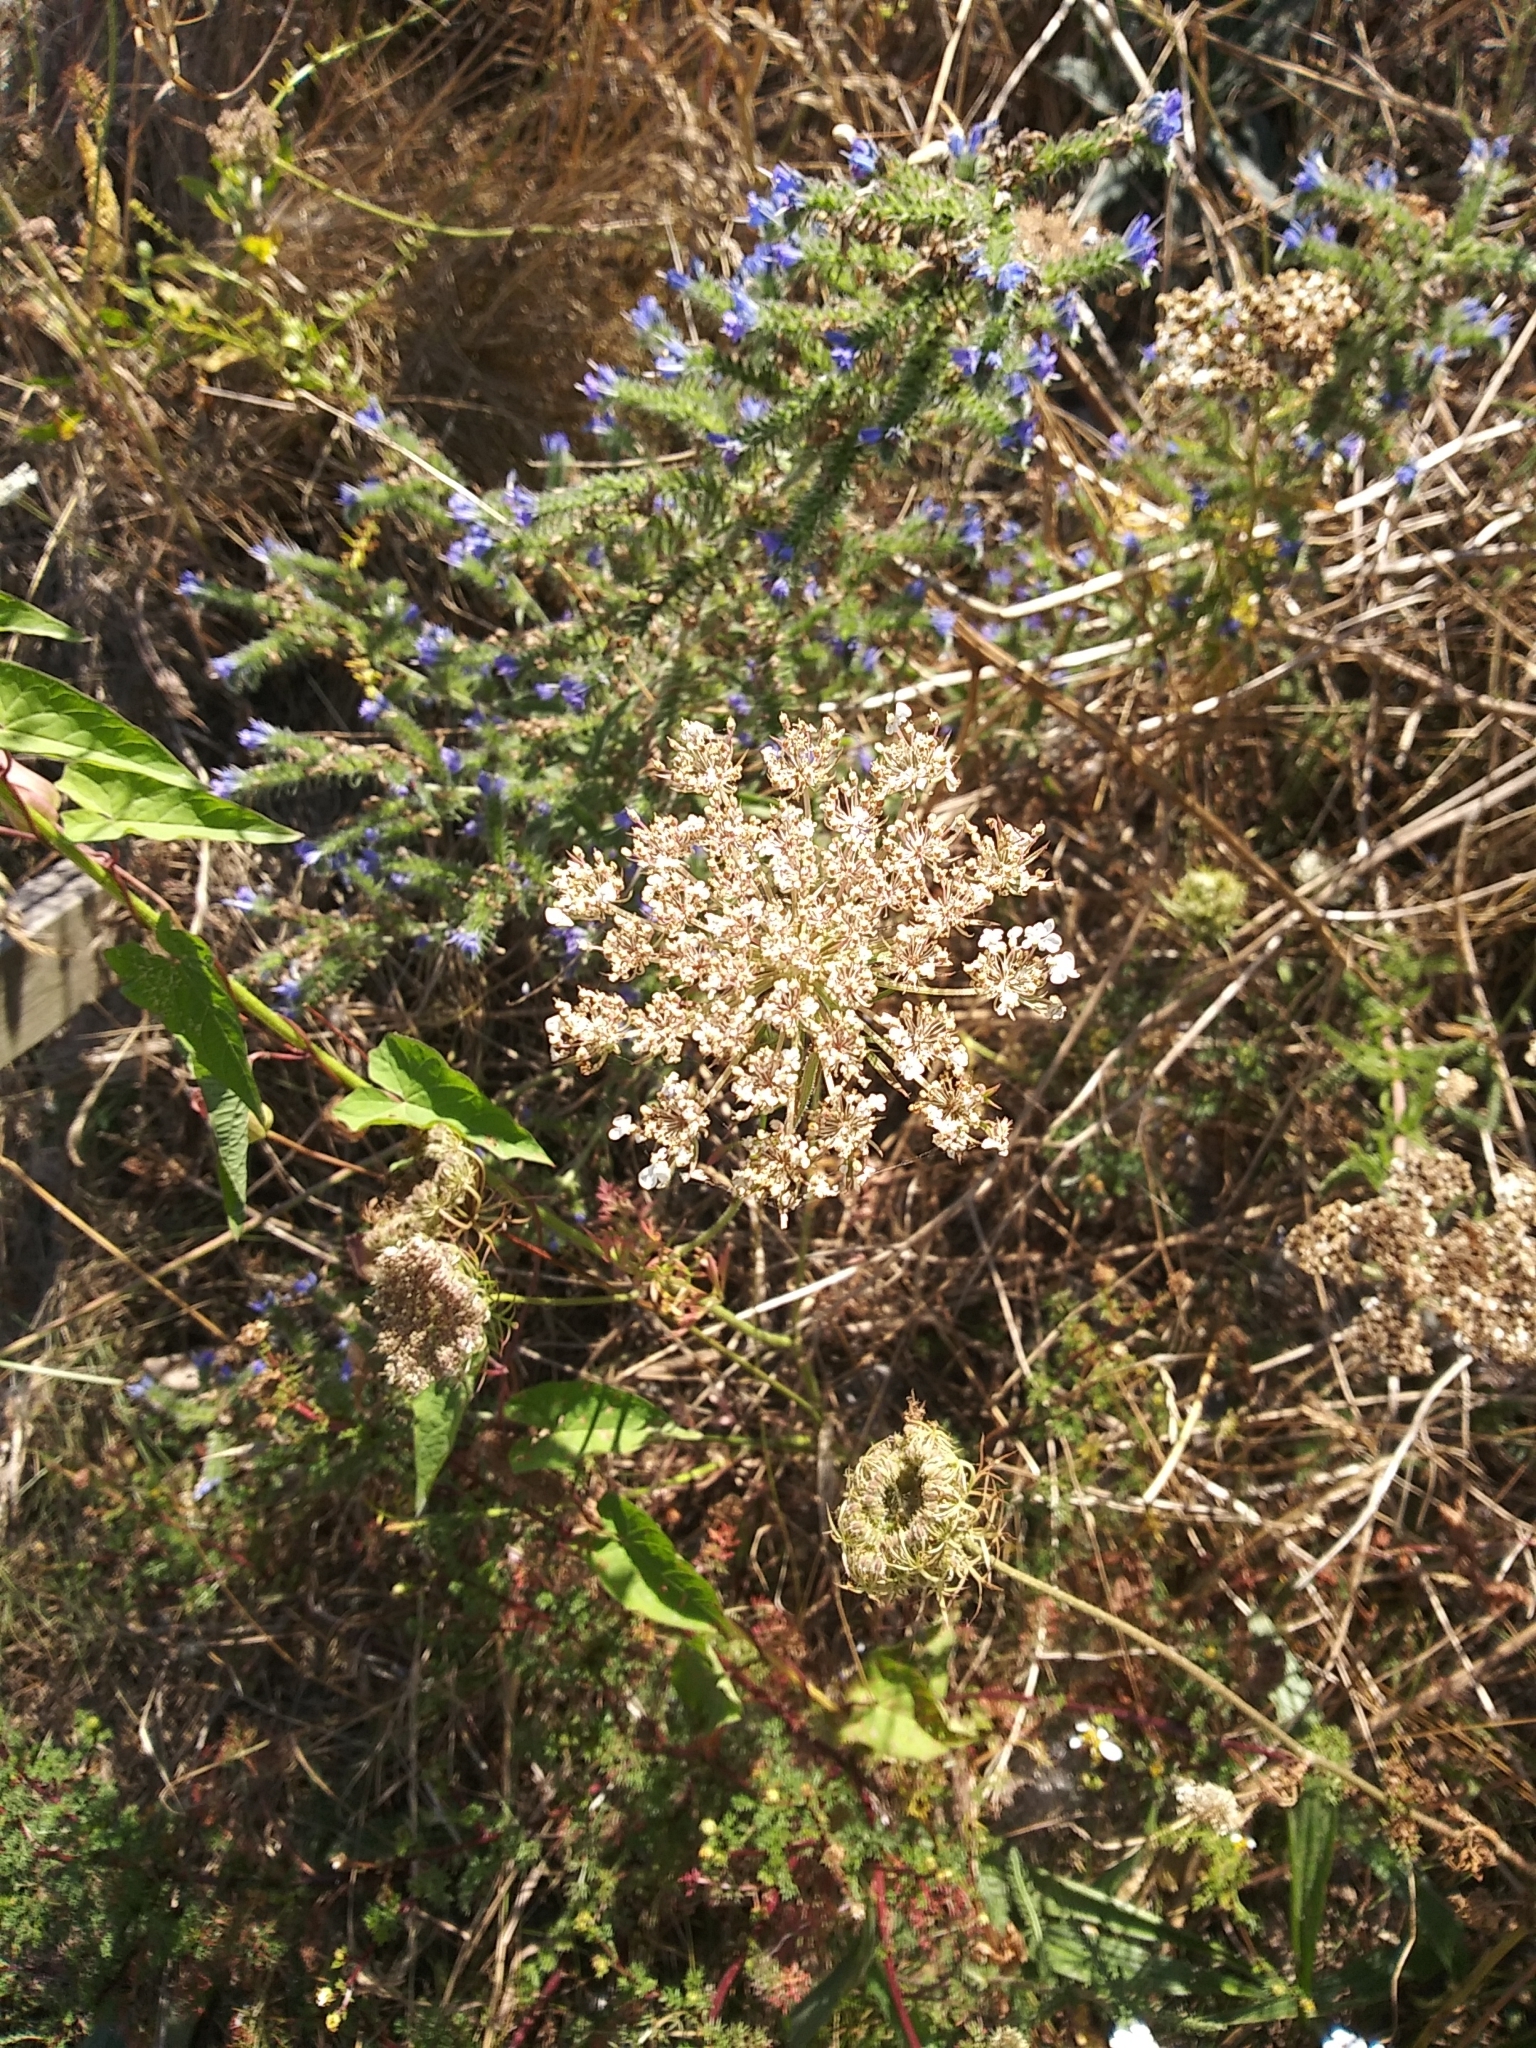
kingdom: Plantae
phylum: Tracheophyta
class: Magnoliopsida
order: Apiales
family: Apiaceae
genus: Daucus
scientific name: Daucus carota
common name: Wild carrot
